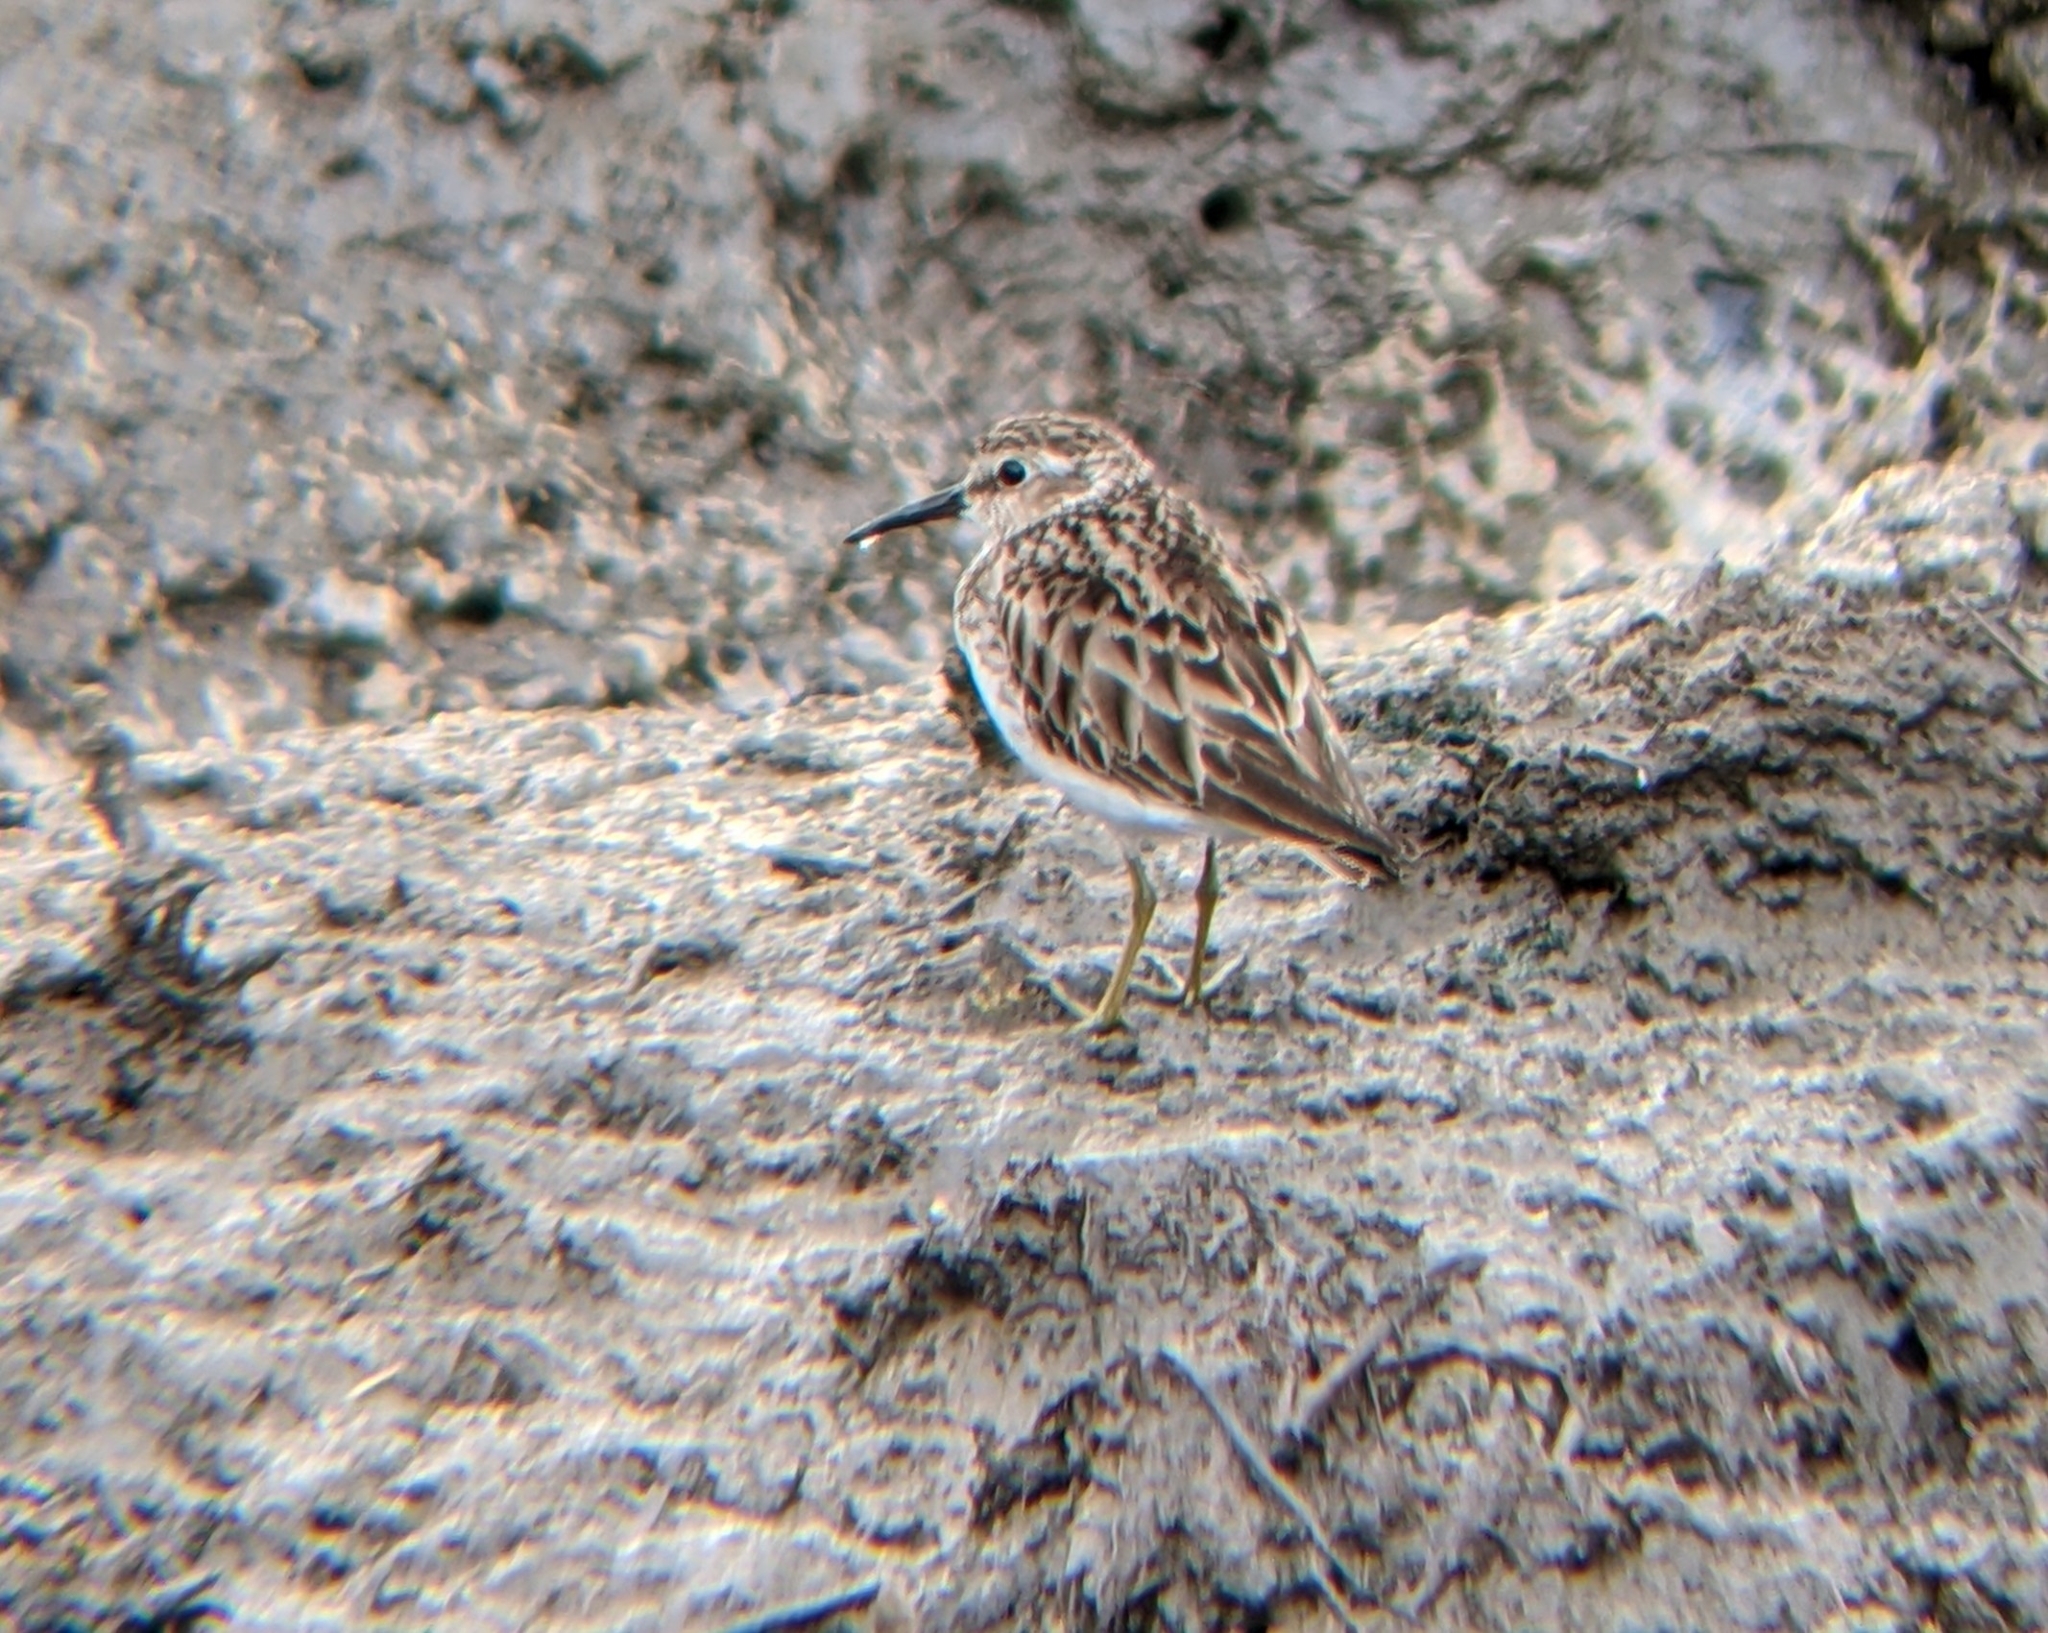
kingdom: Animalia
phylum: Chordata
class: Aves
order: Charadriiformes
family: Scolopacidae
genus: Calidris
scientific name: Calidris minutilla
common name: Least sandpiper
